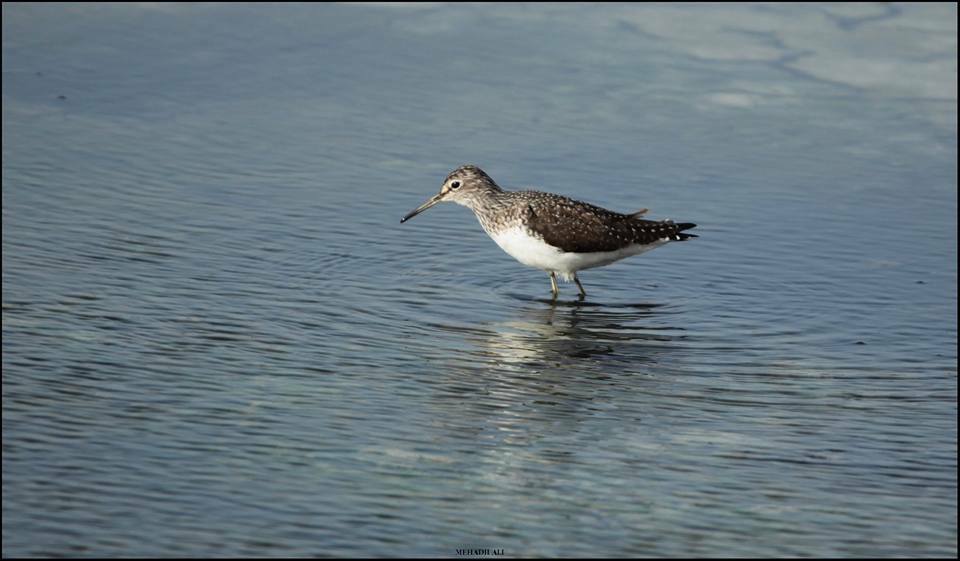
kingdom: Animalia
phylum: Chordata
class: Aves
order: Charadriiformes
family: Scolopacidae
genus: Tringa
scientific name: Tringa ochropus
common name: Green sandpiper
